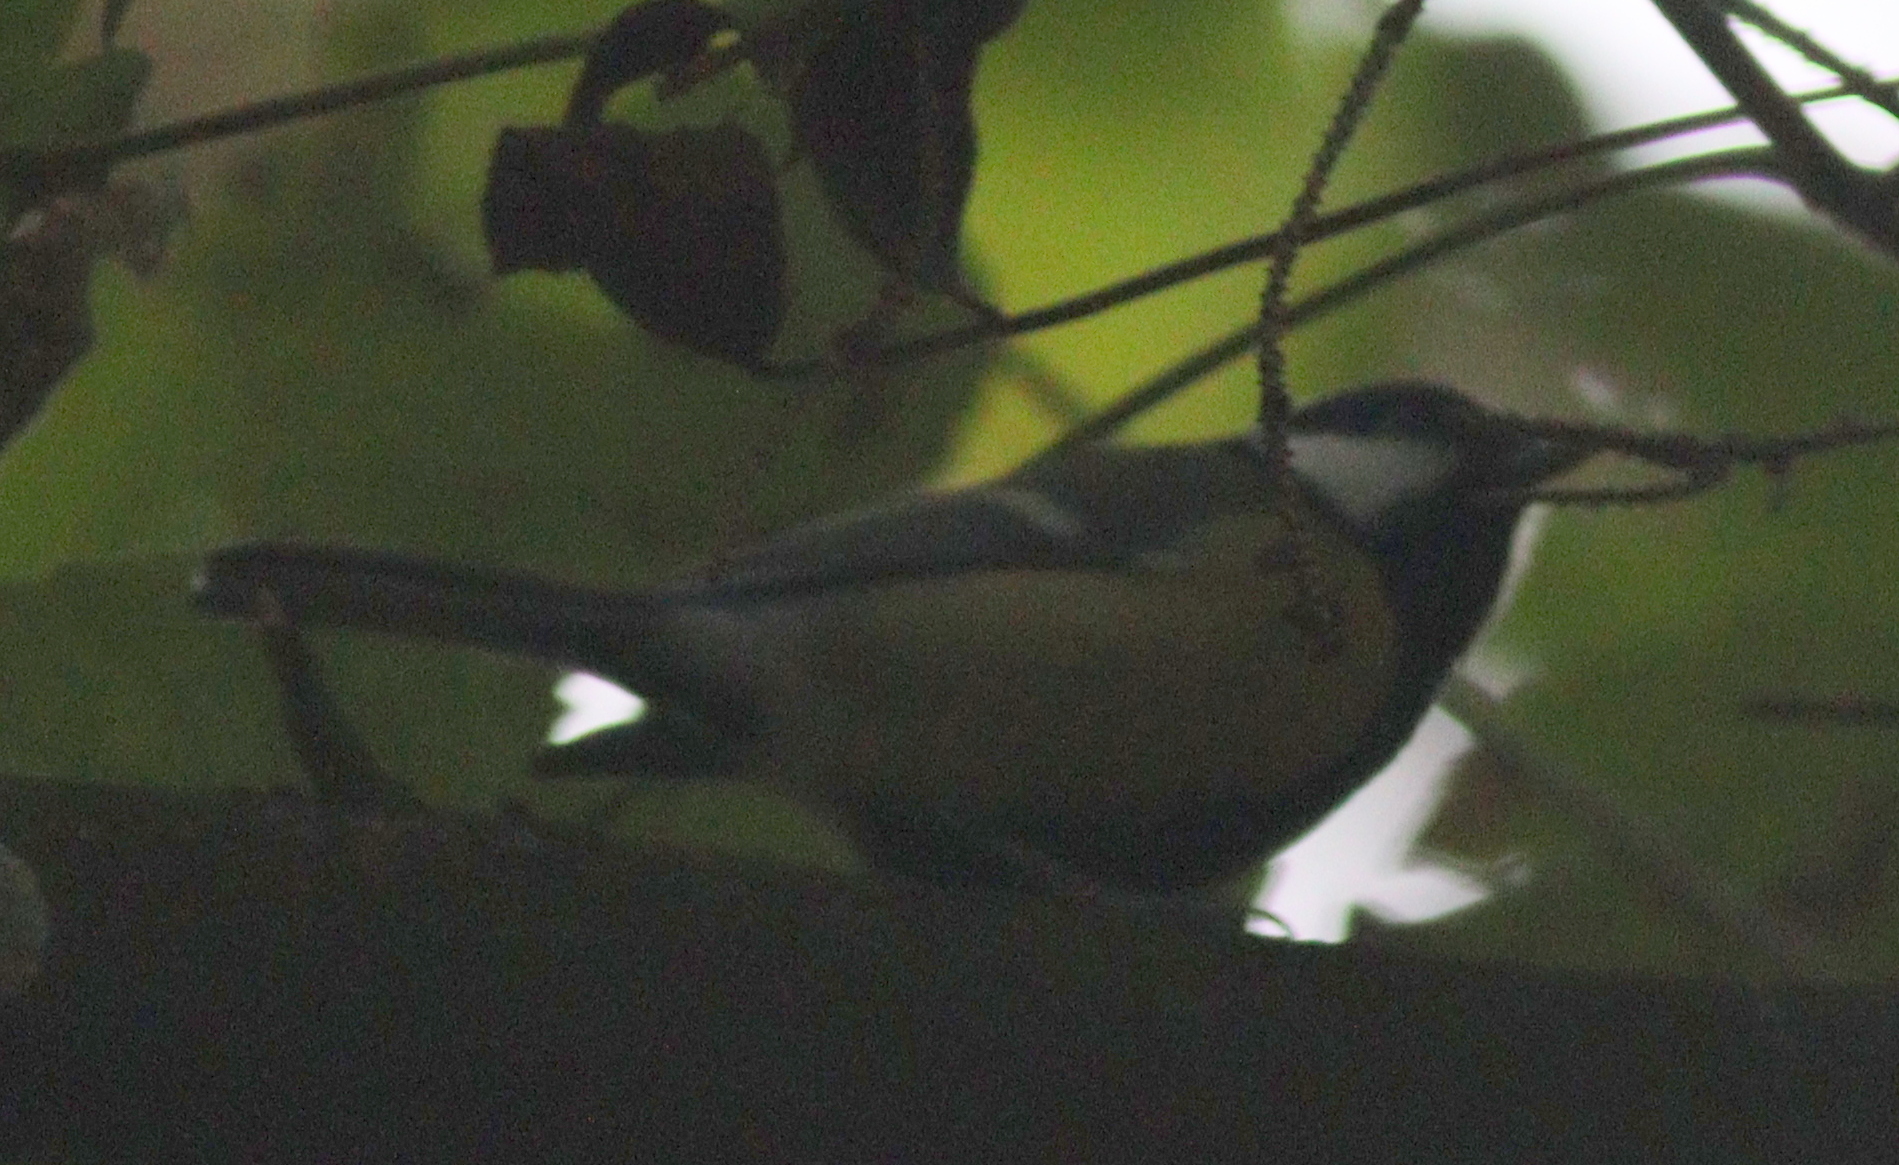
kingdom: Animalia
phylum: Chordata
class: Aves
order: Passeriformes
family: Paridae
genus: Parus
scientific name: Parus major
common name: Great tit
